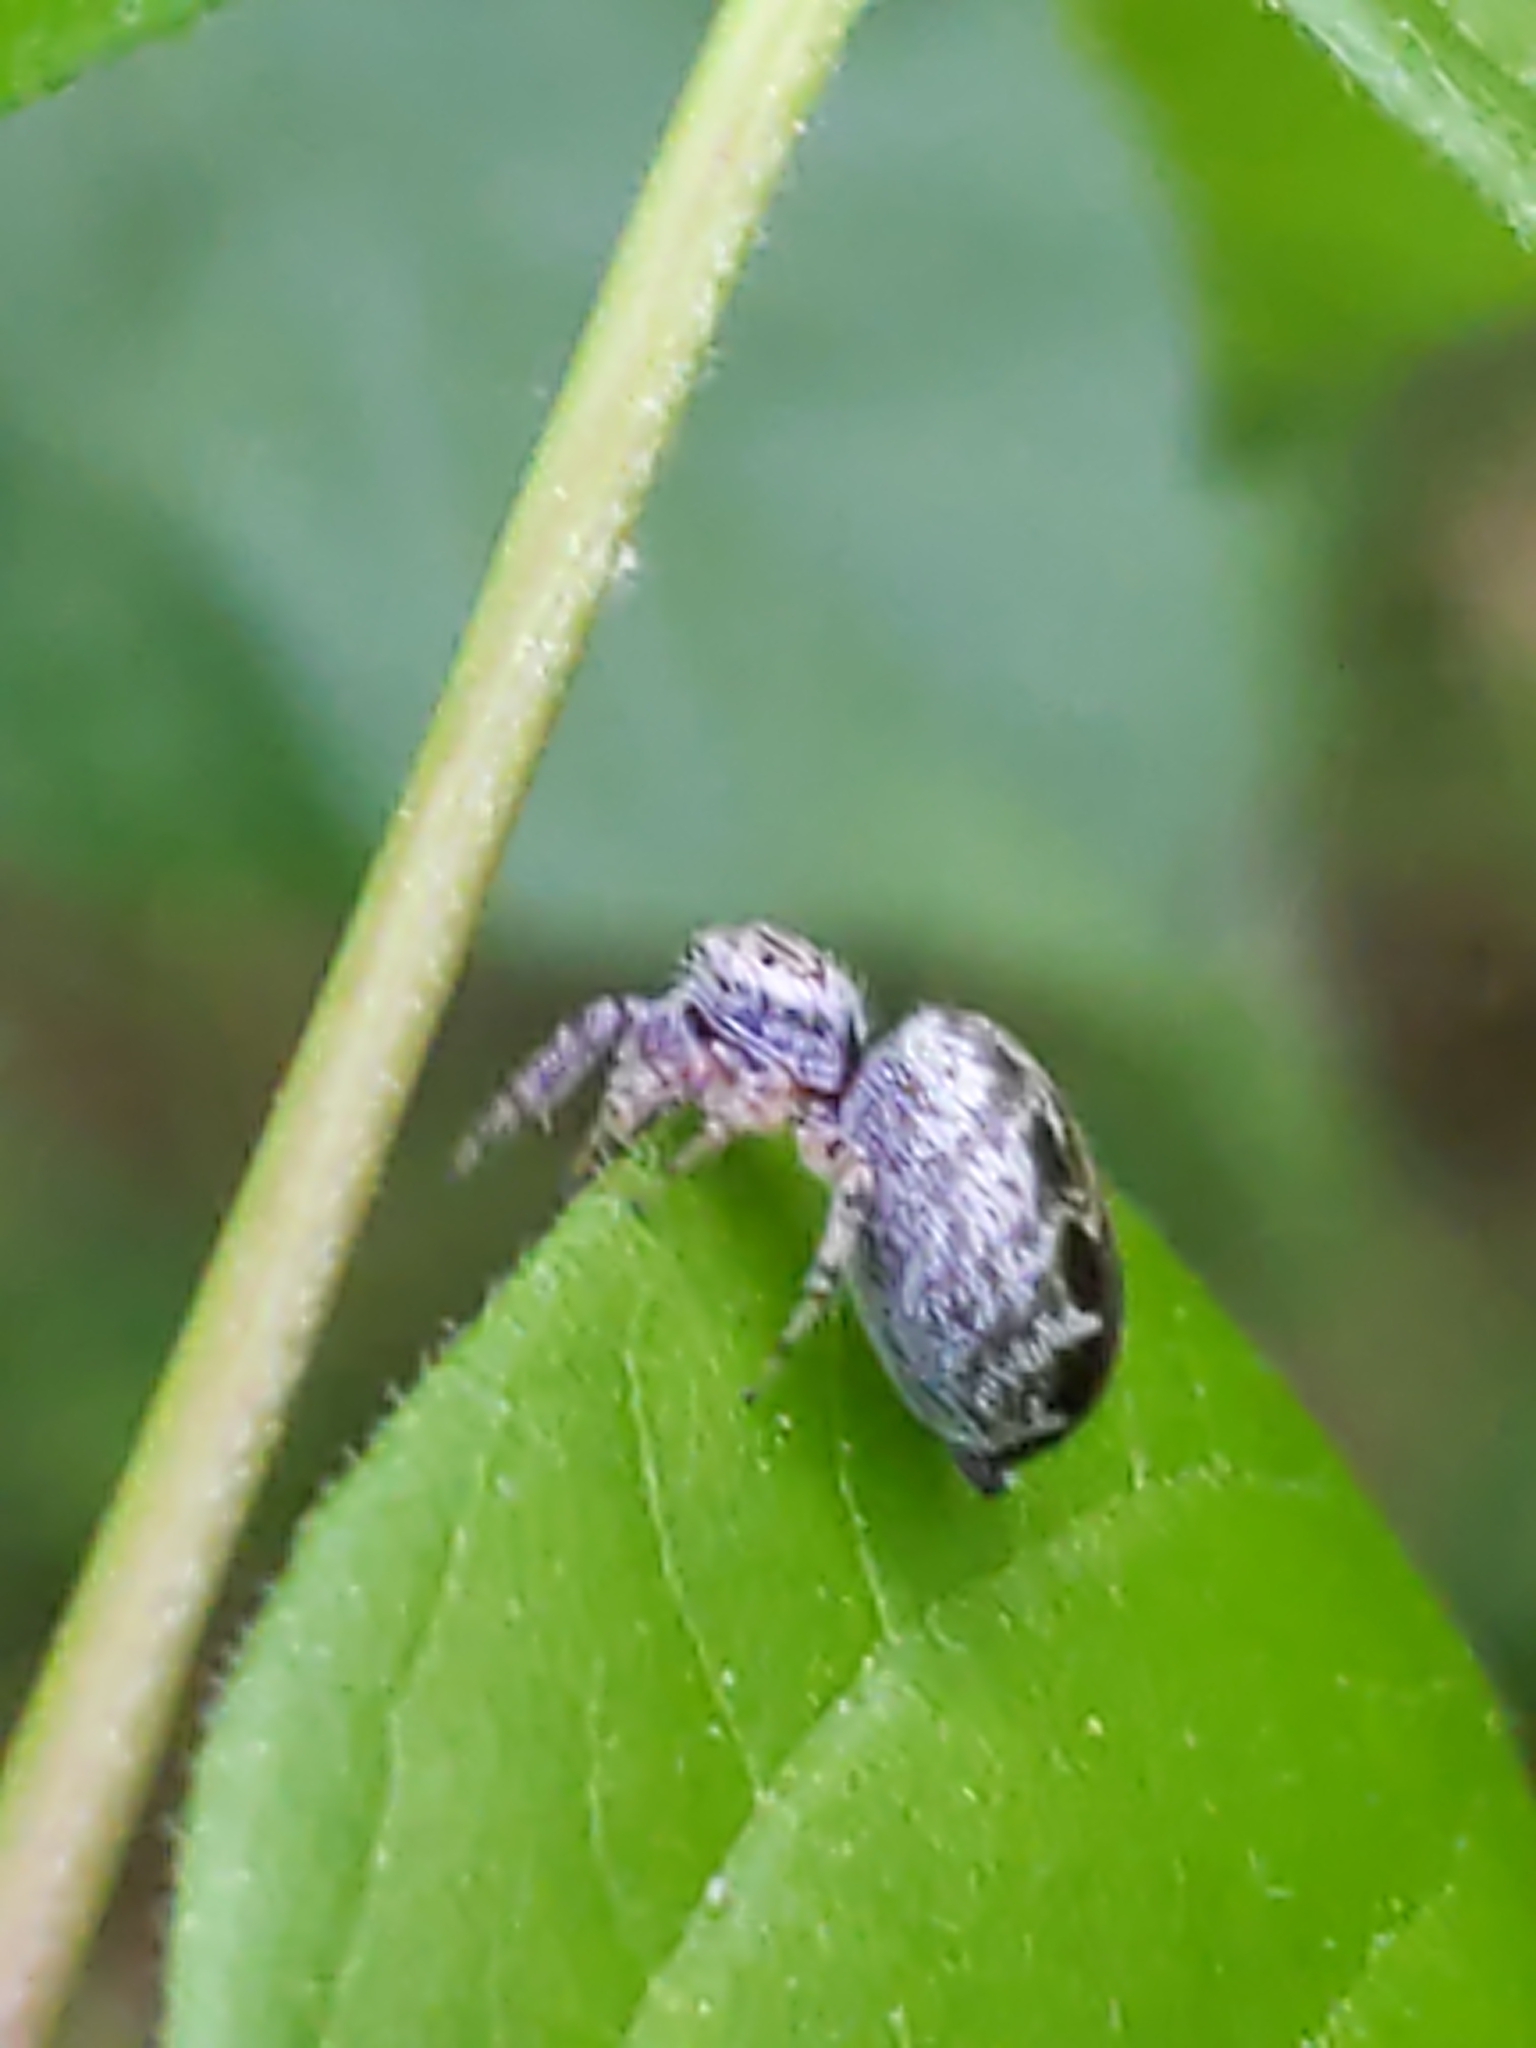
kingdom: Animalia
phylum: Arthropoda
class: Arachnida
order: Araneae
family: Salticidae
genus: Pelegrina
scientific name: Pelegrina
